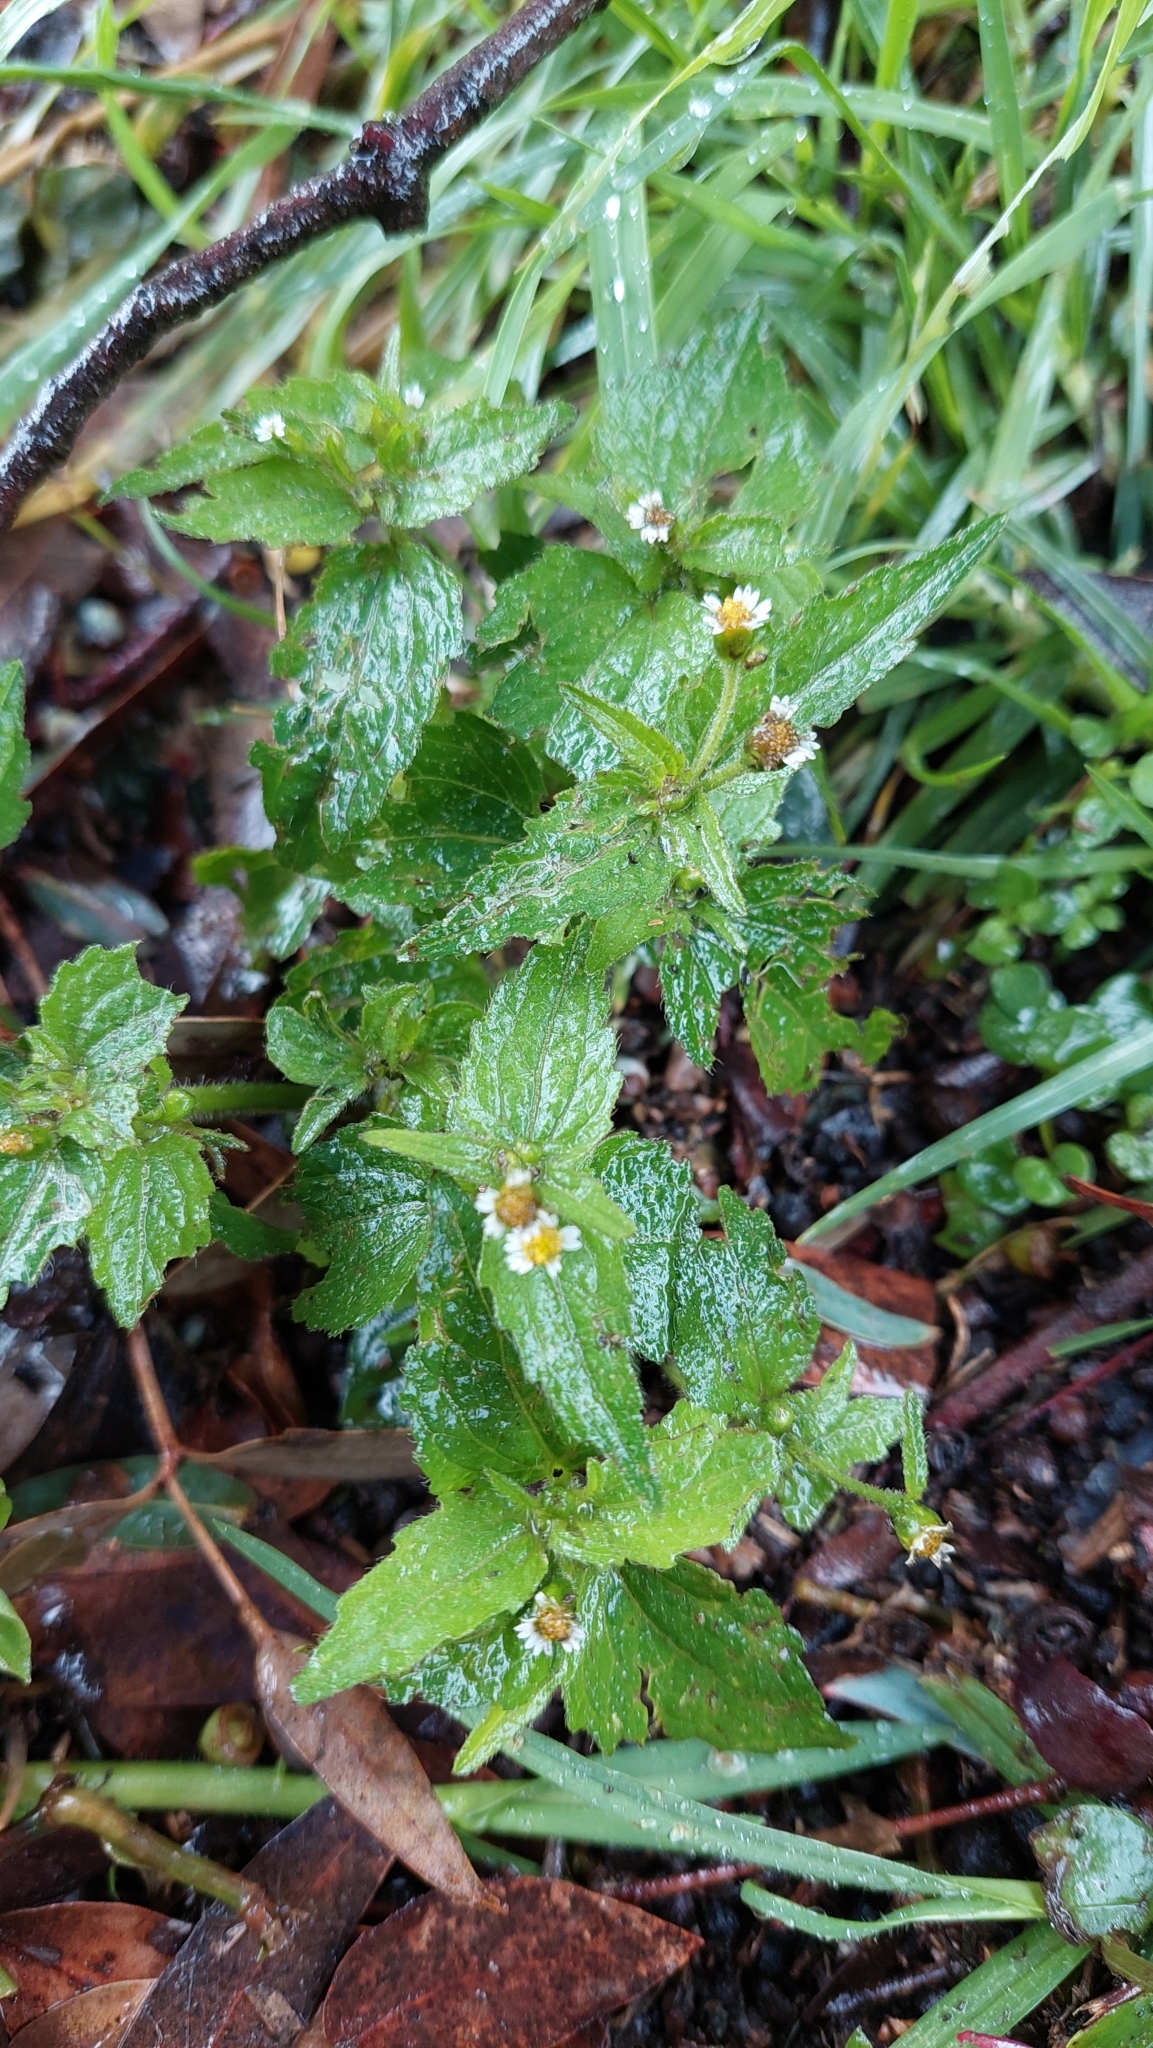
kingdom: Plantae
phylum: Tracheophyta
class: Magnoliopsida
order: Asterales
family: Asteraceae
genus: Galinsoga
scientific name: Galinsoga quadriradiata
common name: Shaggy soldier
